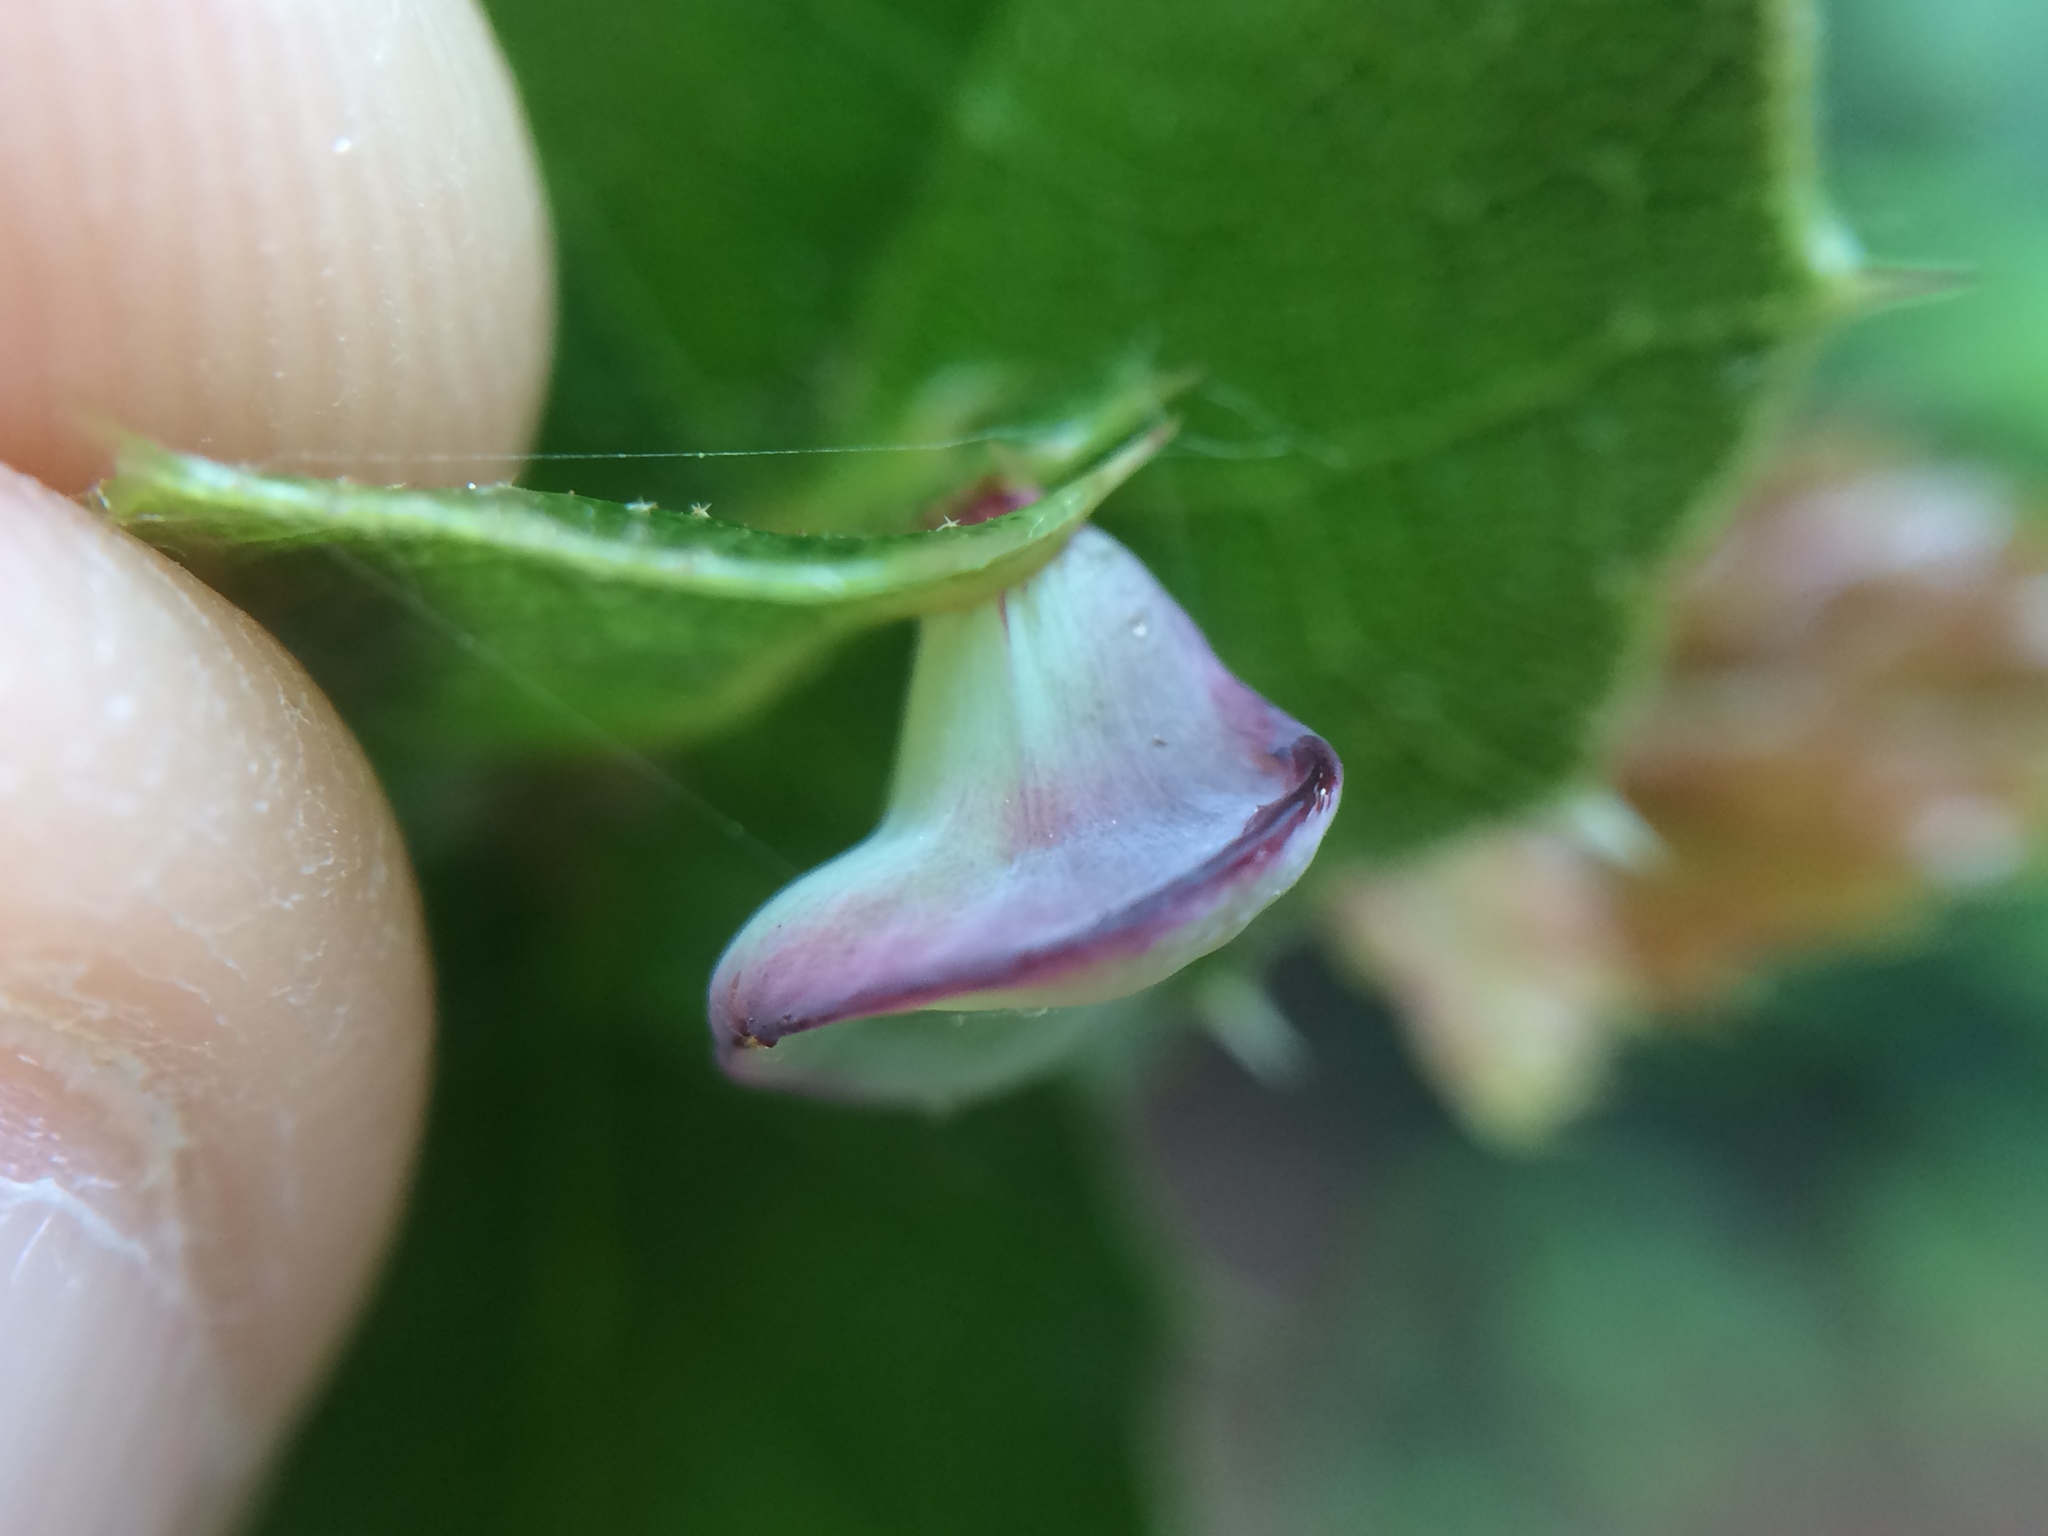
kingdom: Animalia
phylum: Arthropoda
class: Insecta
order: Hymenoptera
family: Cynipidae
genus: Amphibolips
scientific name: Amphibolips quercuspomiformis
